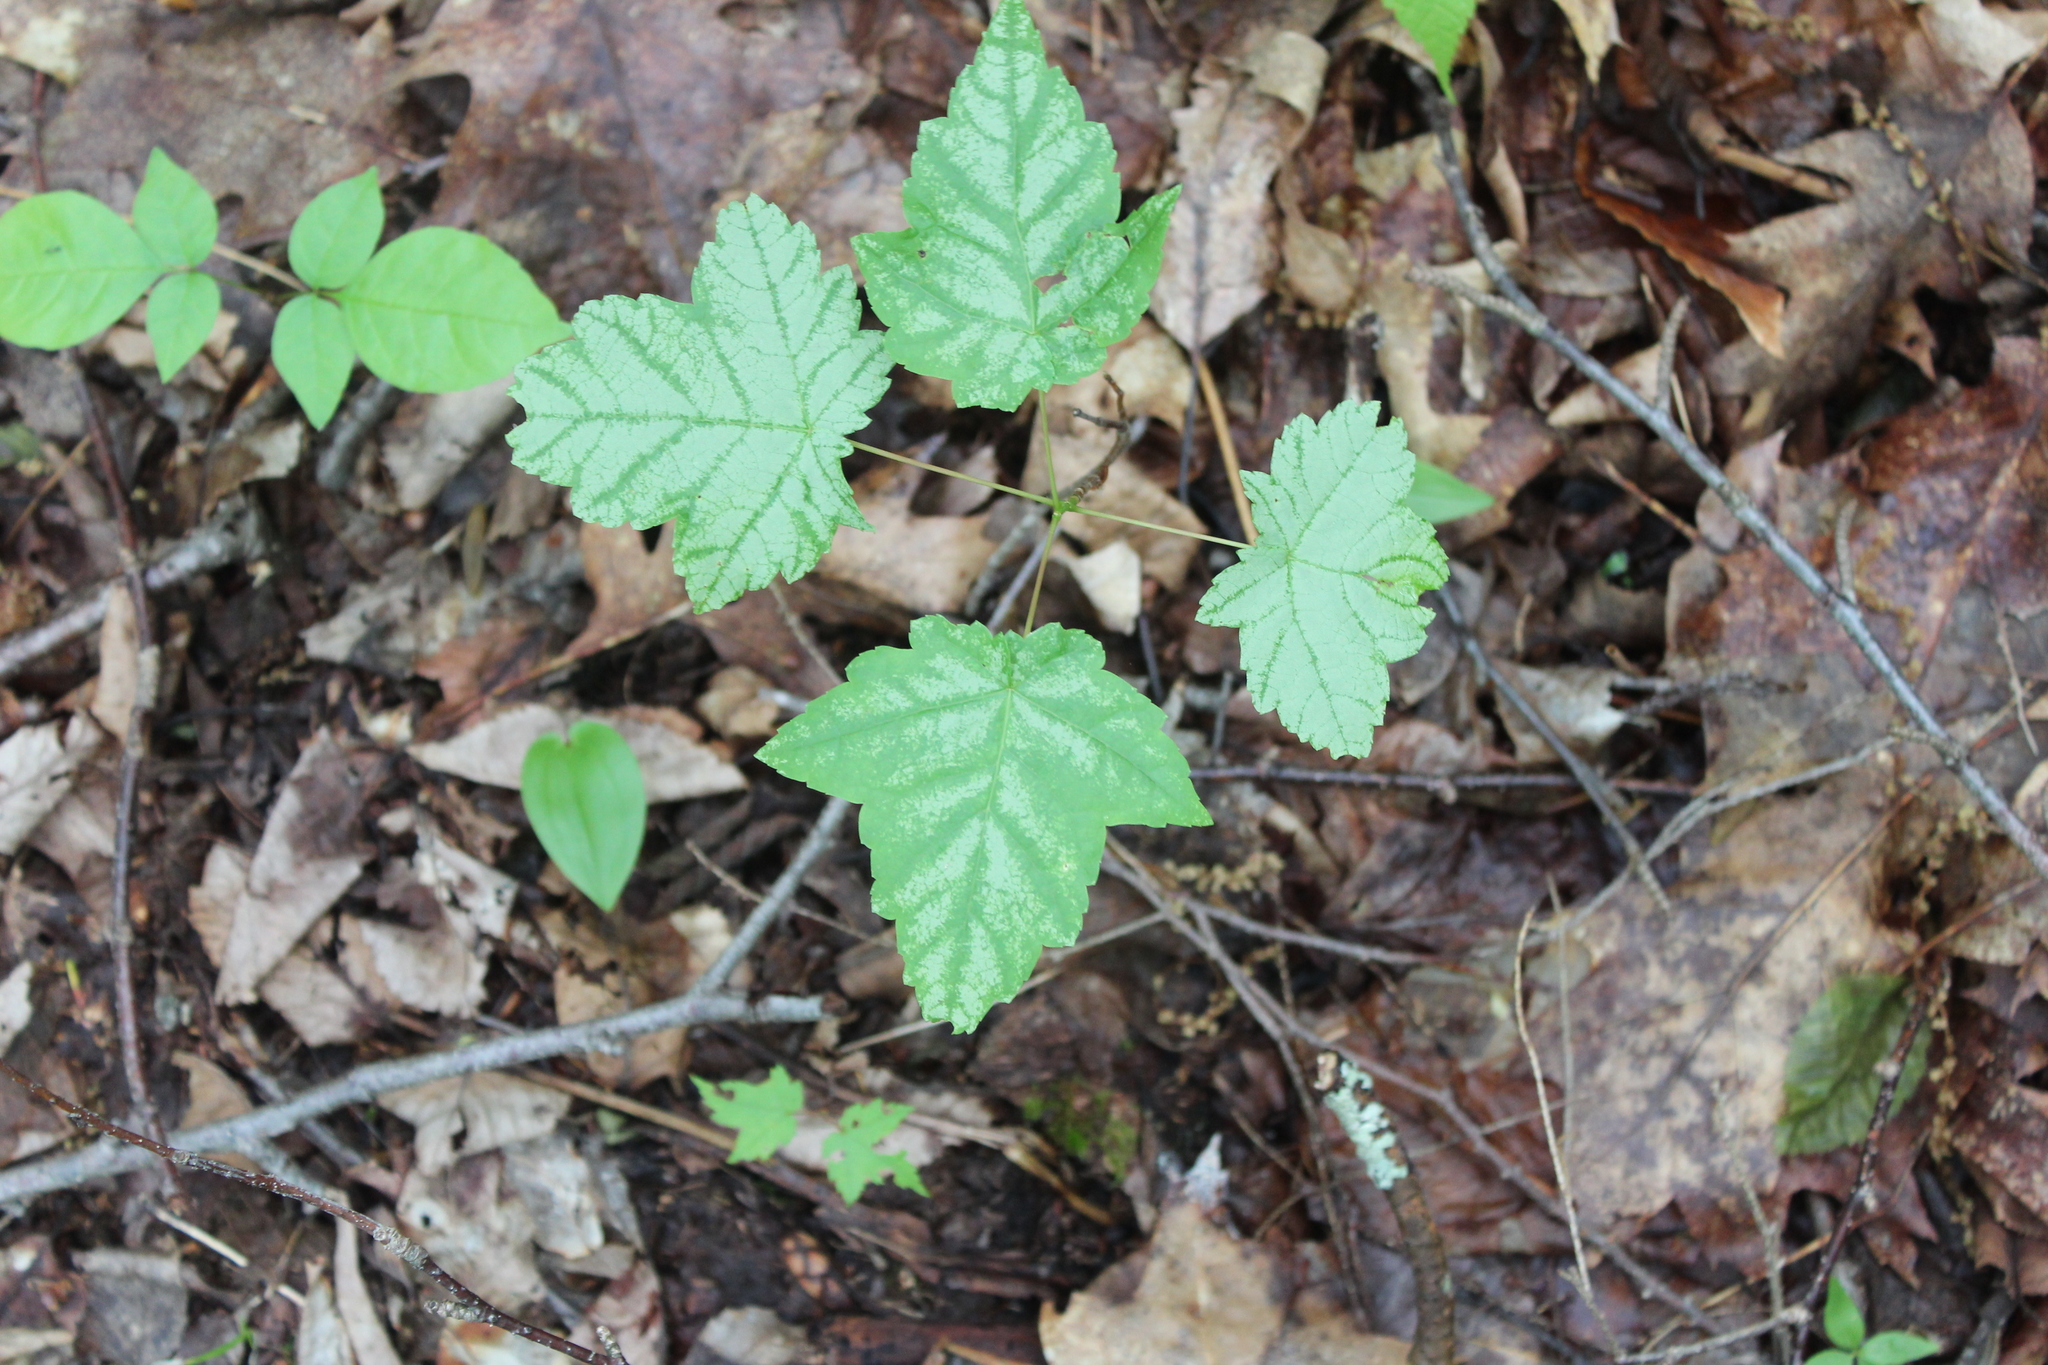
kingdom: Plantae
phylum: Tracheophyta
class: Magnoliopsida
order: Sapindales
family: Sapindaceae
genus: Acer
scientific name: Acer rubrum
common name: Red maple
